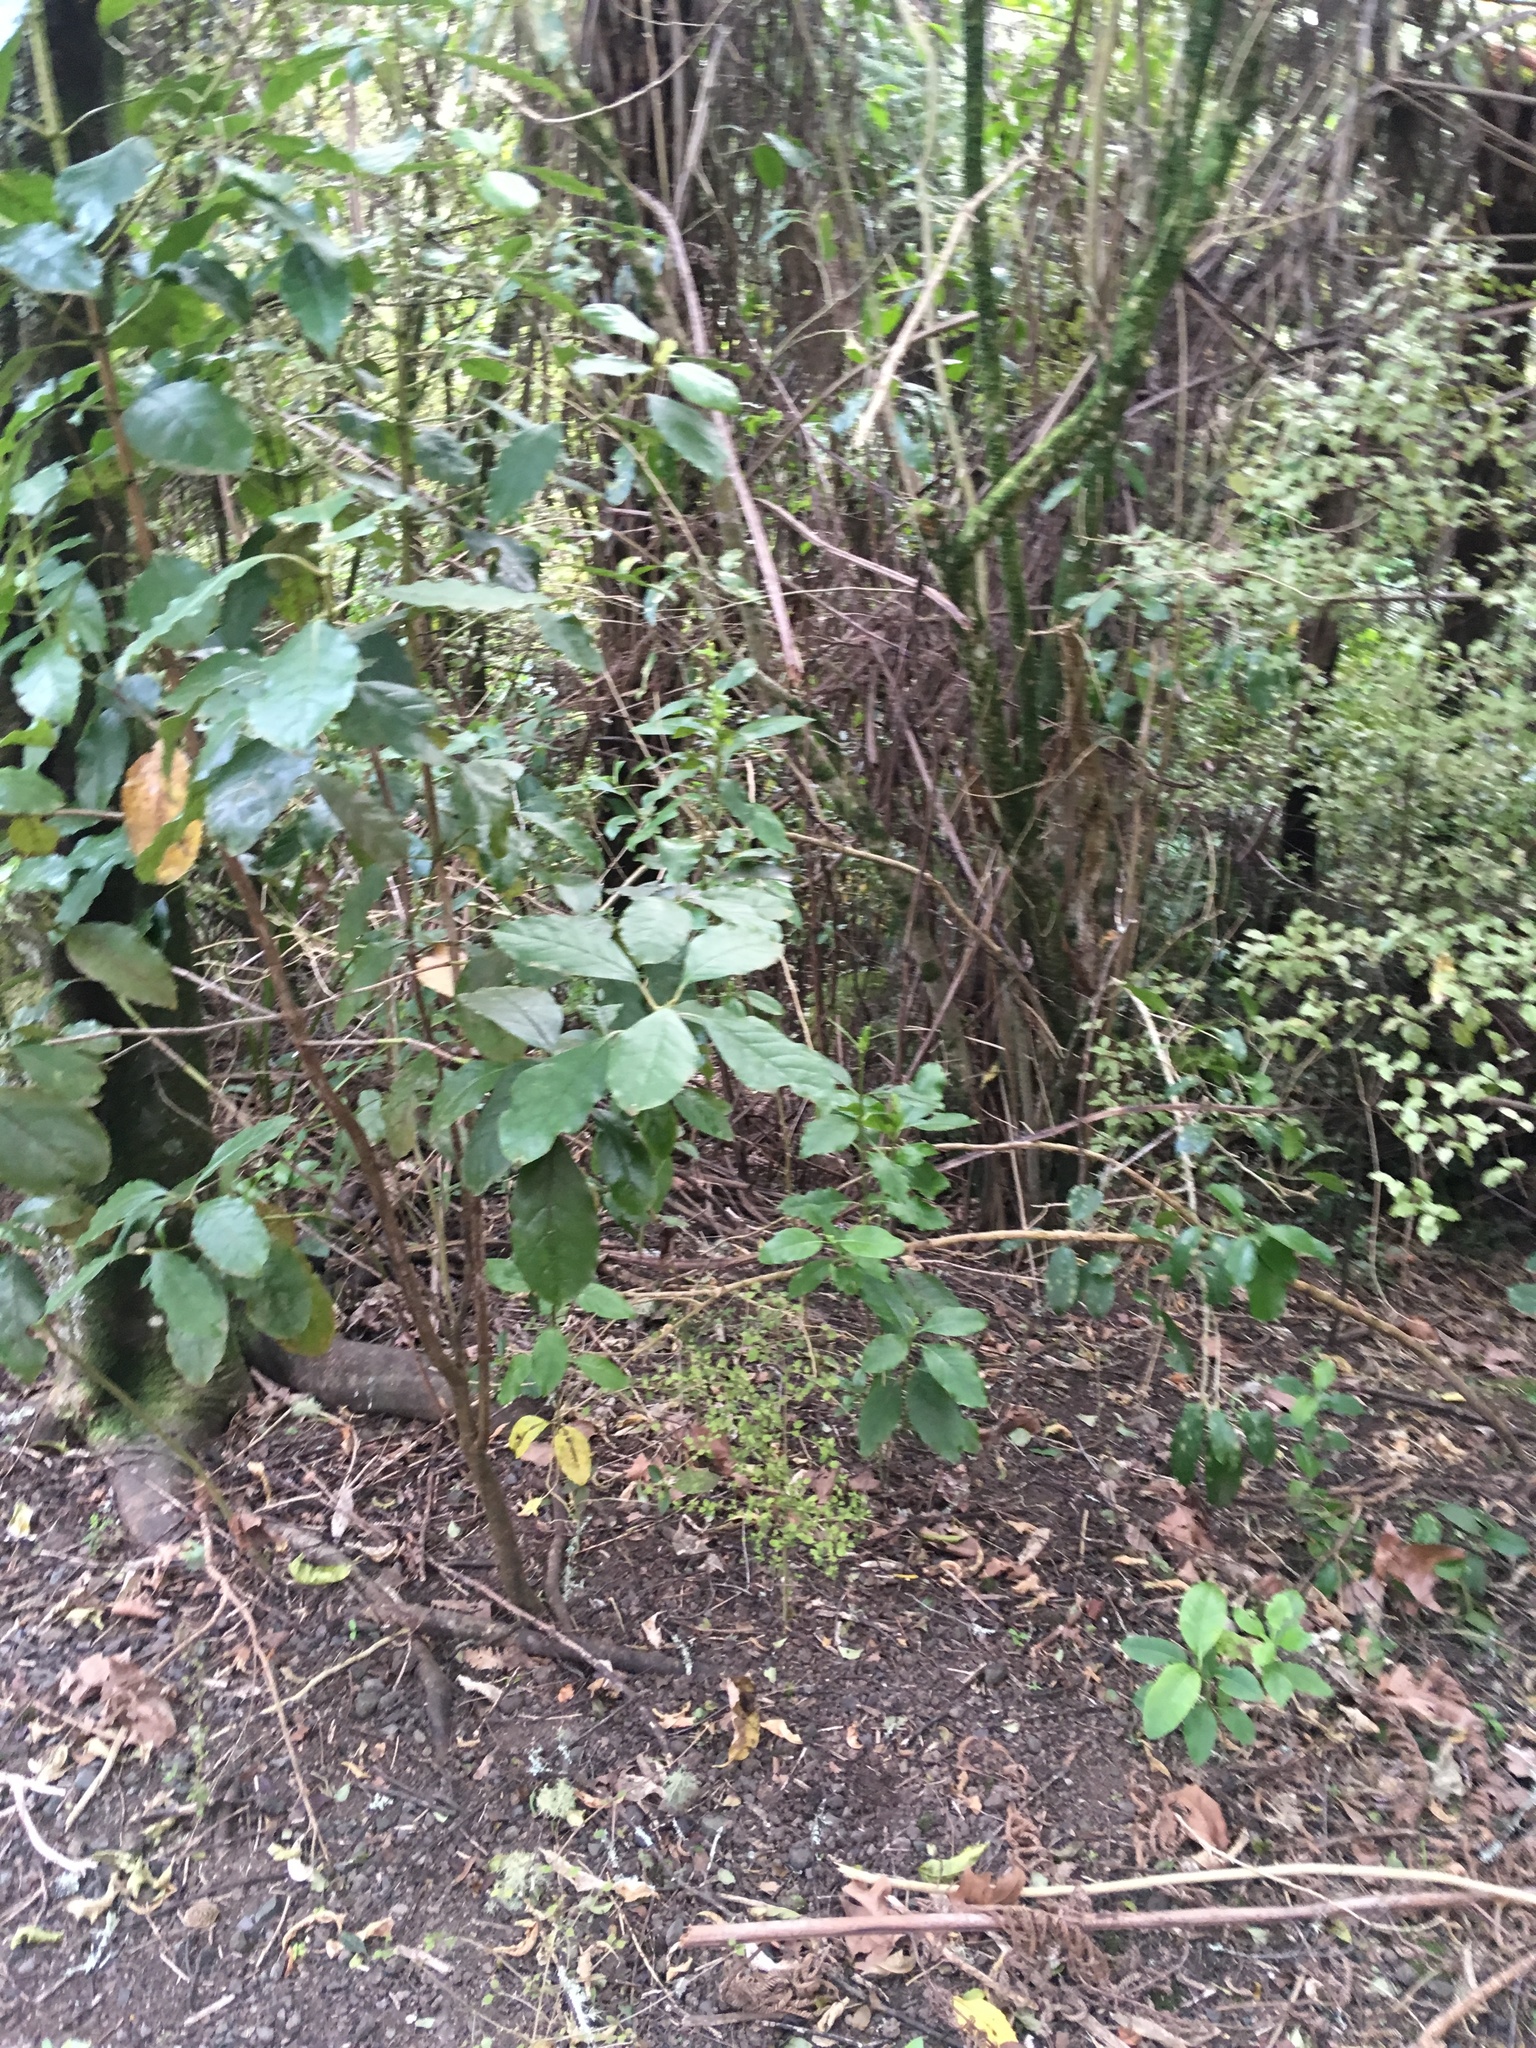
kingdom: Plantae
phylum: Tracheophyta
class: Magnoliopsida
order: Gentianales
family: Rubiaceae
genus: Coprosma
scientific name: Coprosma autumnalis
